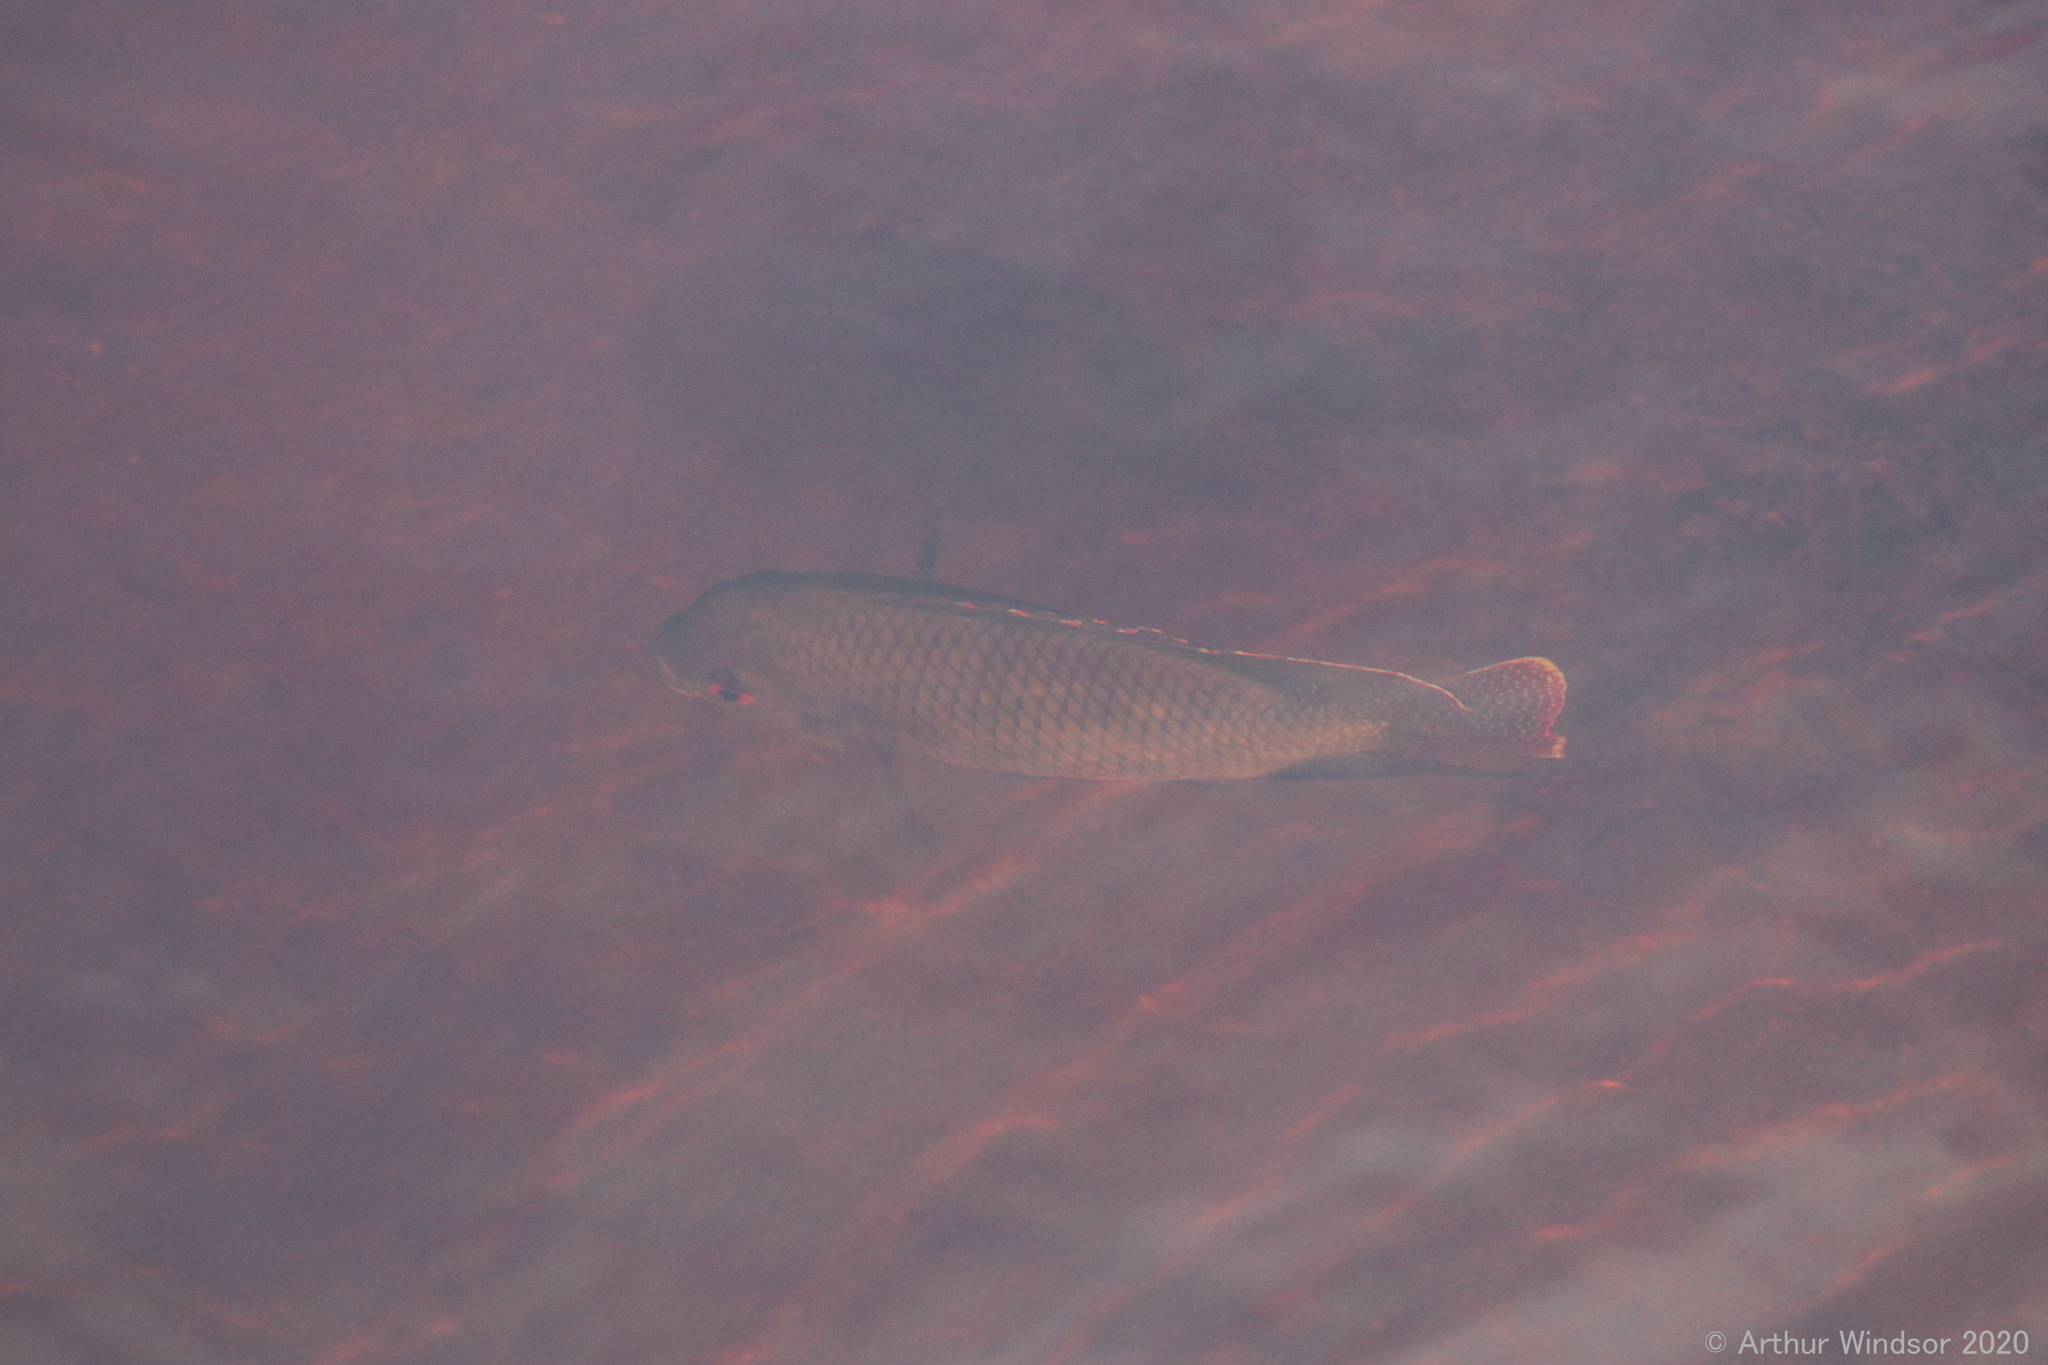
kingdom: Animalia
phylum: Chordata
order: Perciformes
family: Cichlidae
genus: Pelmatolapia
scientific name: Pelmatolapia mariae
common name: Spotted tilapia
